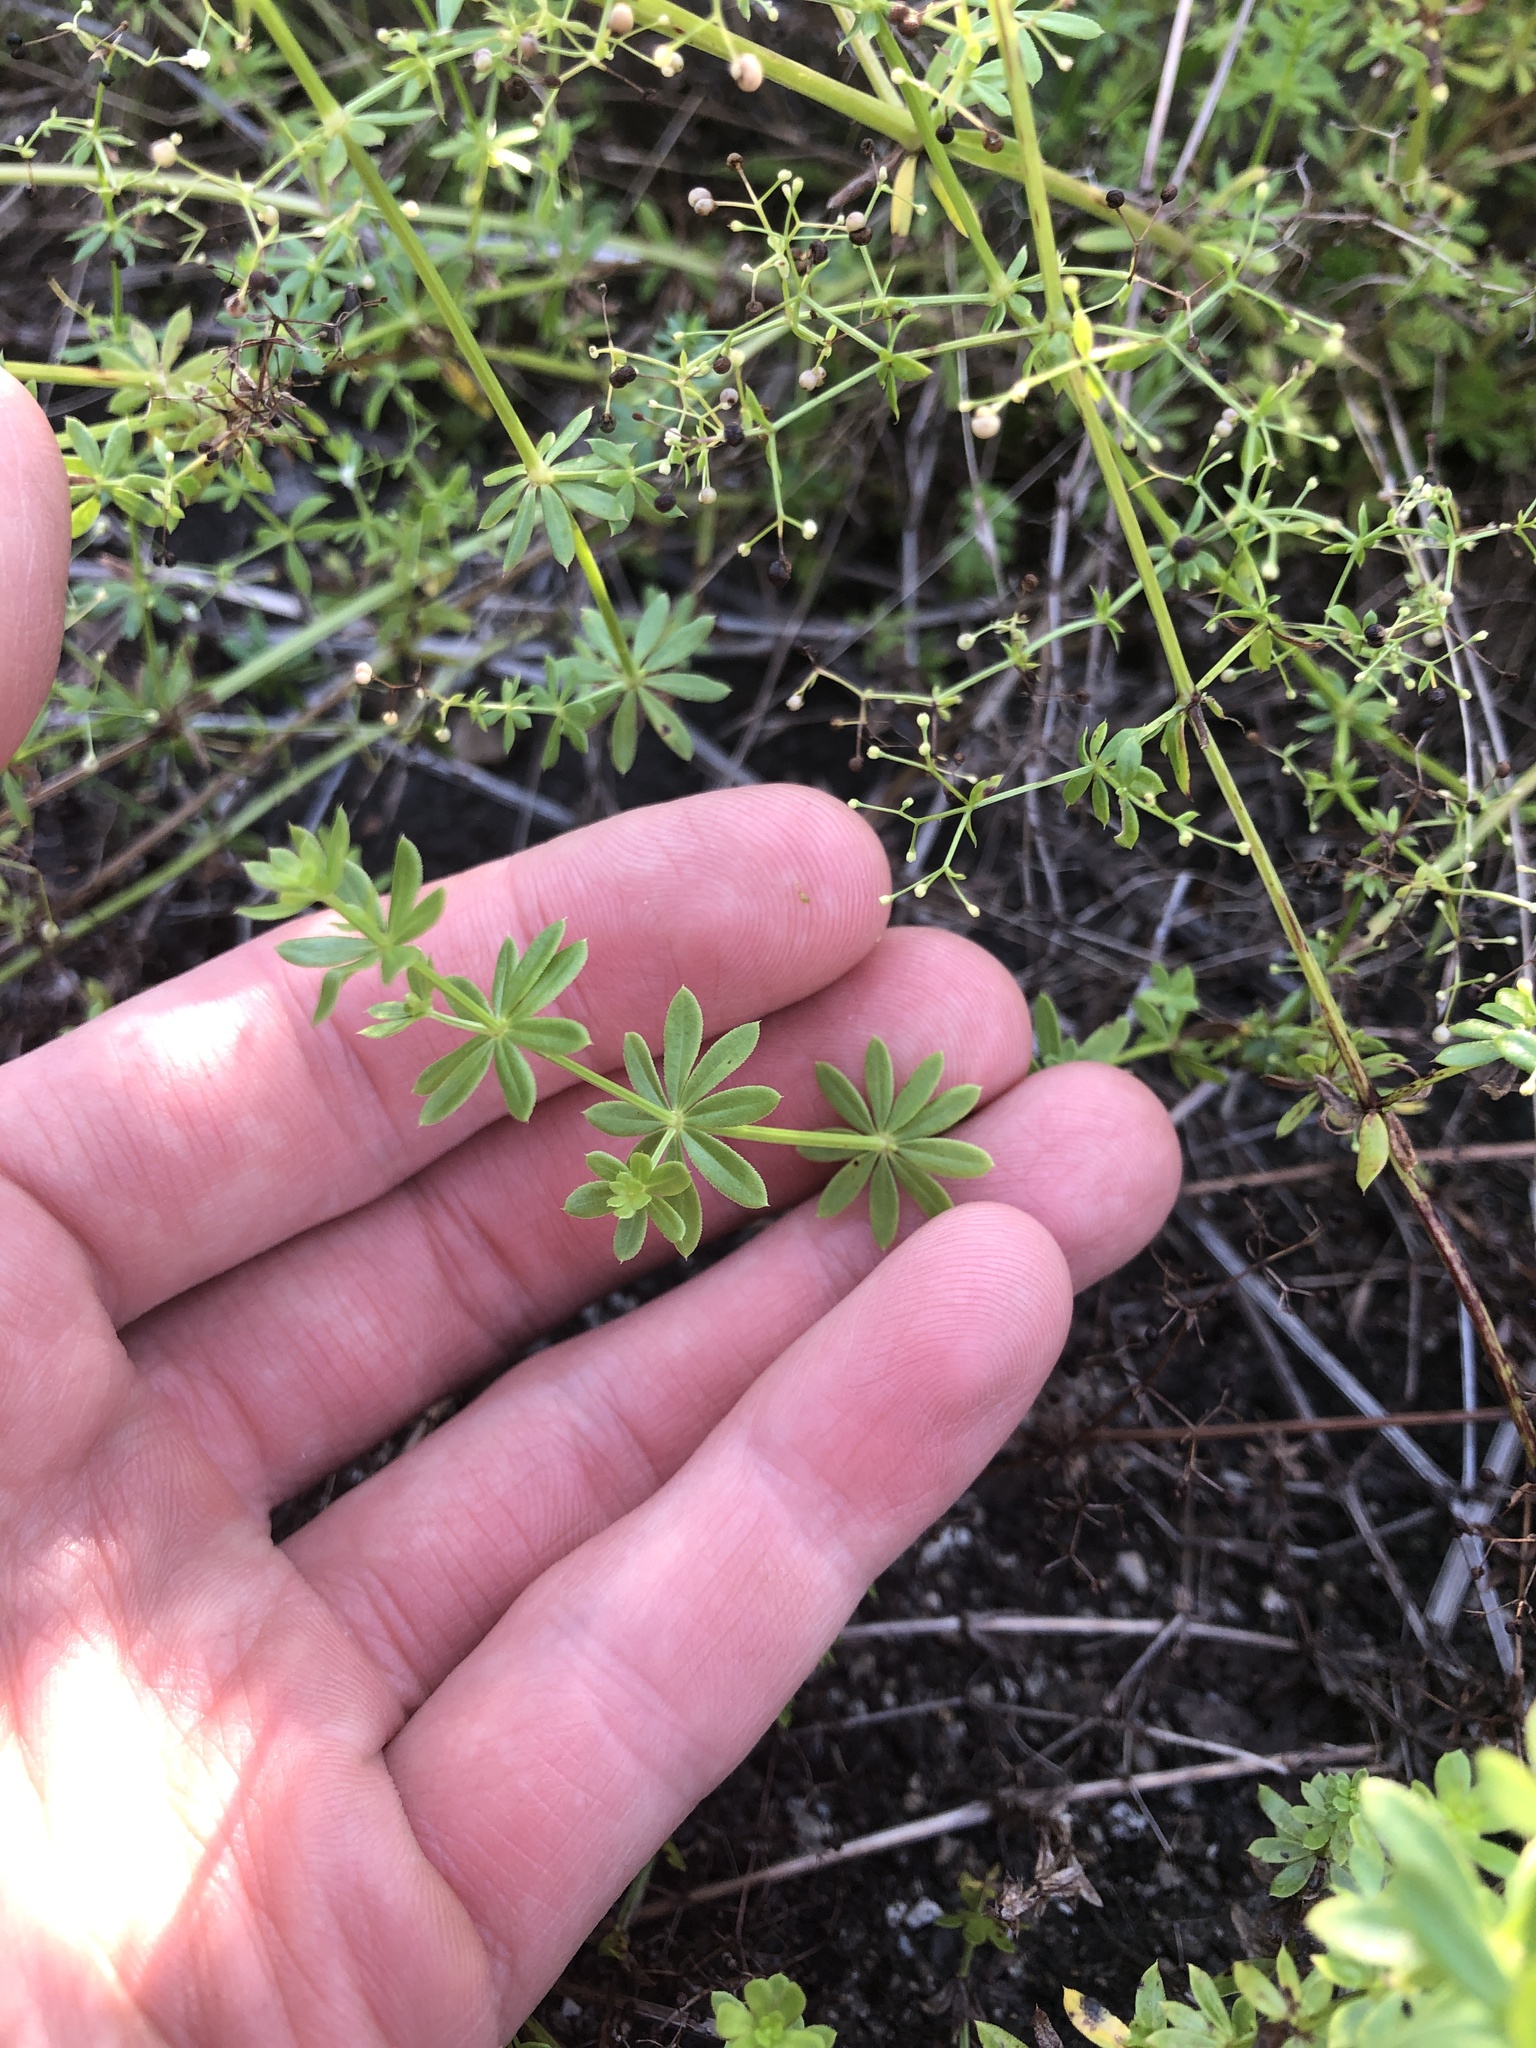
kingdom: Plantae
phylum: Tracheophyta
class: Magnoliopsida
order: Gentianales
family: Rubiaceae
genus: Galium
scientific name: Galium mollugo
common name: Hedge bedstraw
